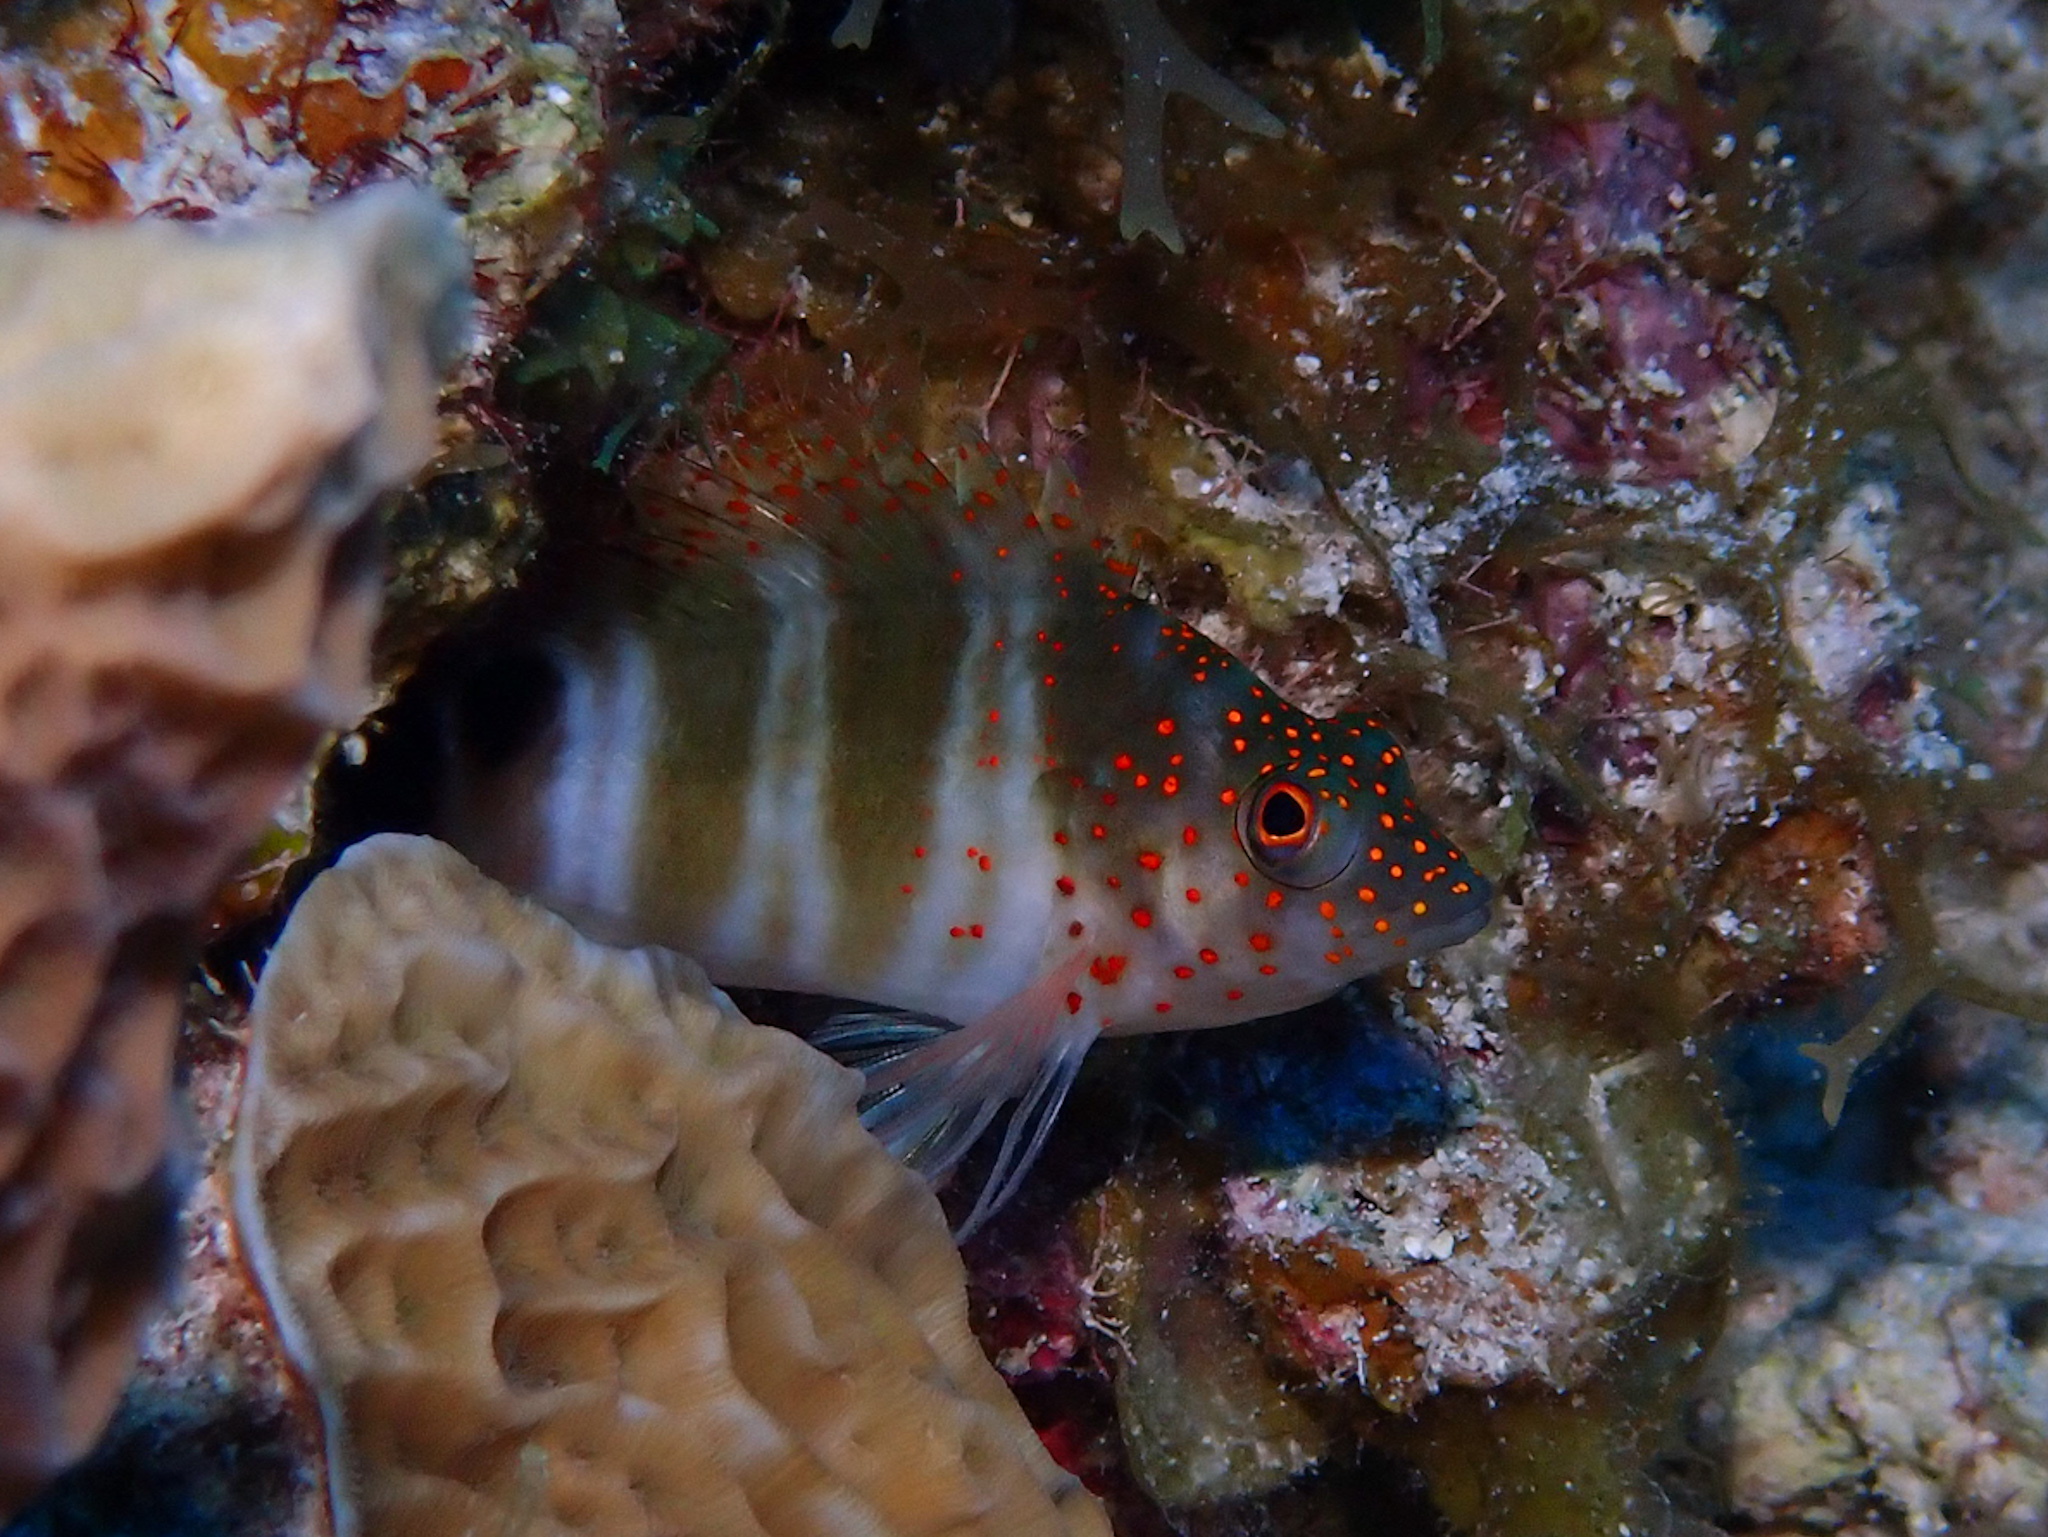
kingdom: Animalia
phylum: Chordata
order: Perciformes
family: Cirrhitidae
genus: Amblycirrhitus
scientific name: Amblycirrhitus pinos
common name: Redspotted hawkfish
